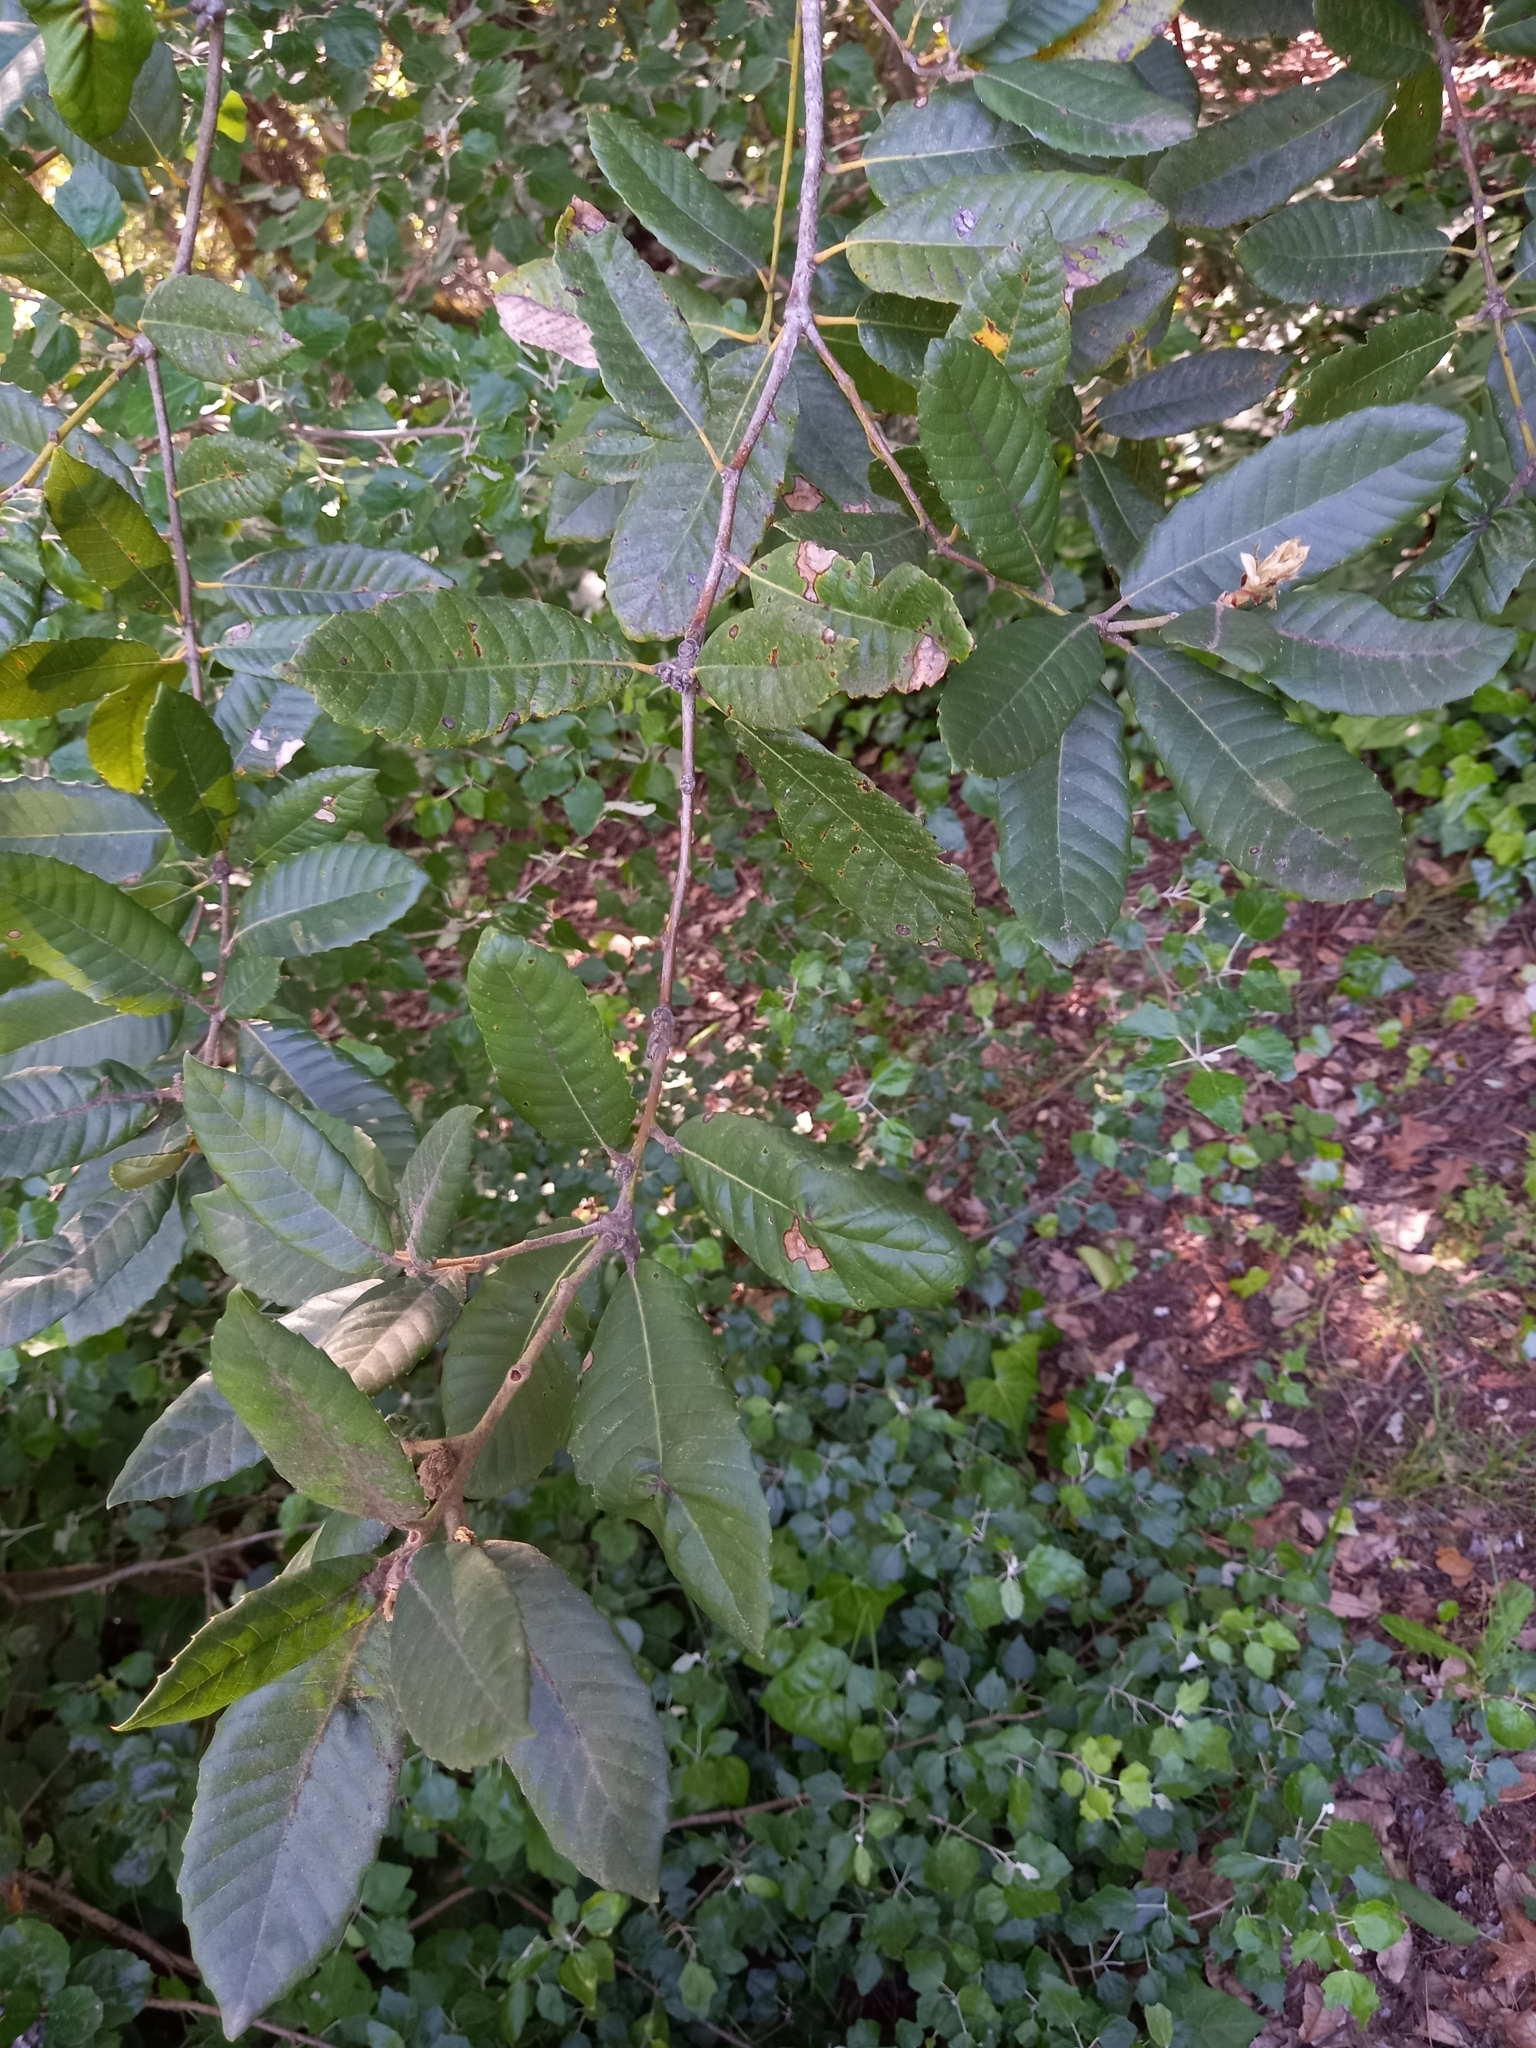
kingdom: Plantae
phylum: Tracheophyta
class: Magnoliopsida
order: Fagales
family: Fagaceae
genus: Notholithocarpus
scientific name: Notholithocarpus densiflorus
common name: Tan bark oak
